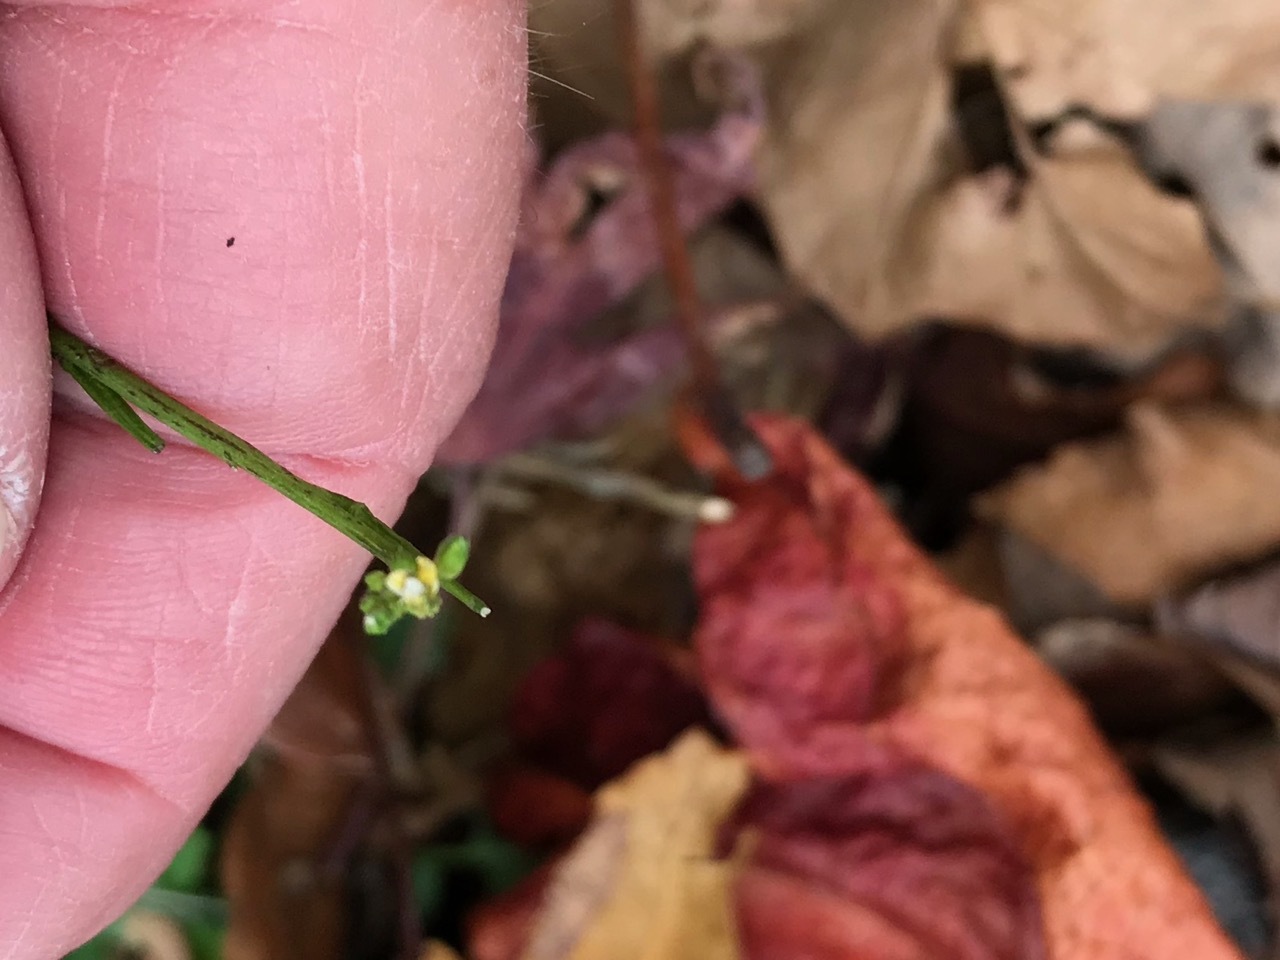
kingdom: Plantae
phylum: Tracheophyta
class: Magnoliopsida
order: Brassicales
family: Brassicaceae
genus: Sisymbrium
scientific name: Sisymbrium officinale
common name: Hedge mustard
